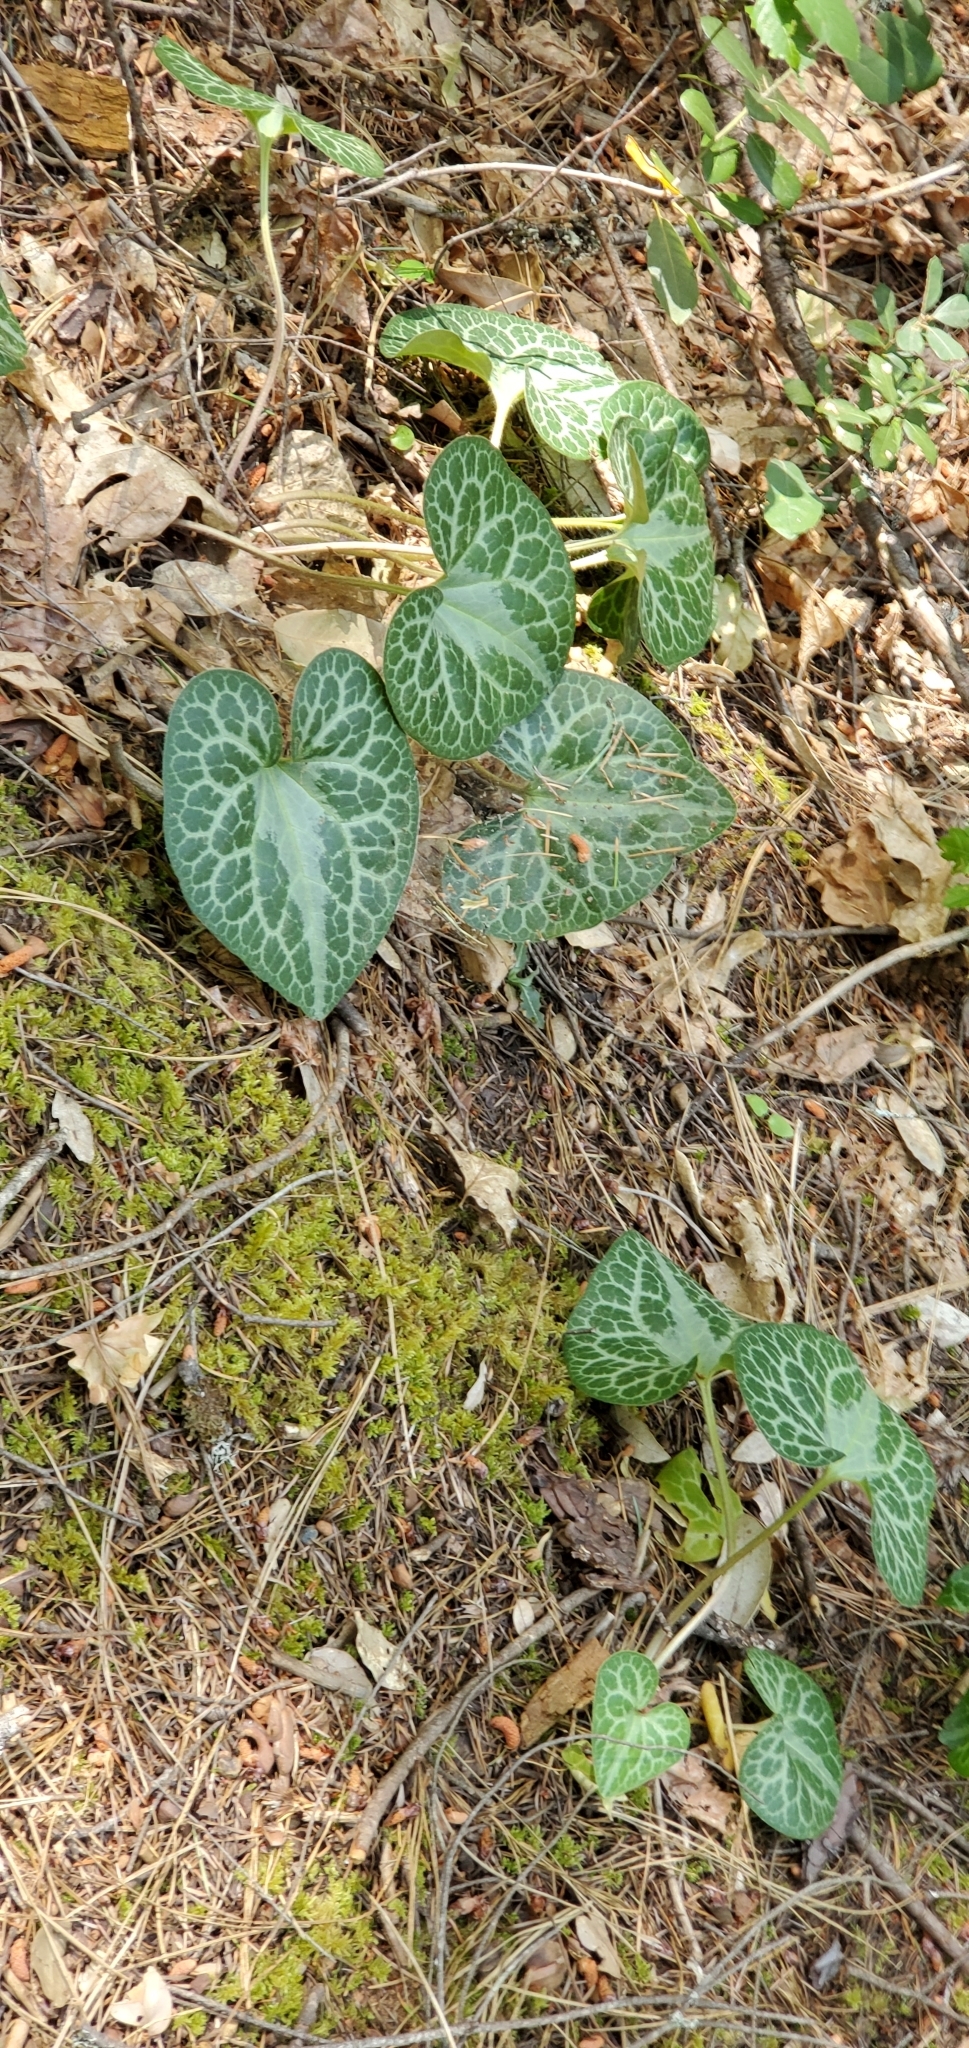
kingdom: Plantae
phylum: Tracheophyta
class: Magnoliopsida
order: Piperales
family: Aristolochiaceae
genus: Asarum
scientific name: Asarum hartwegii
